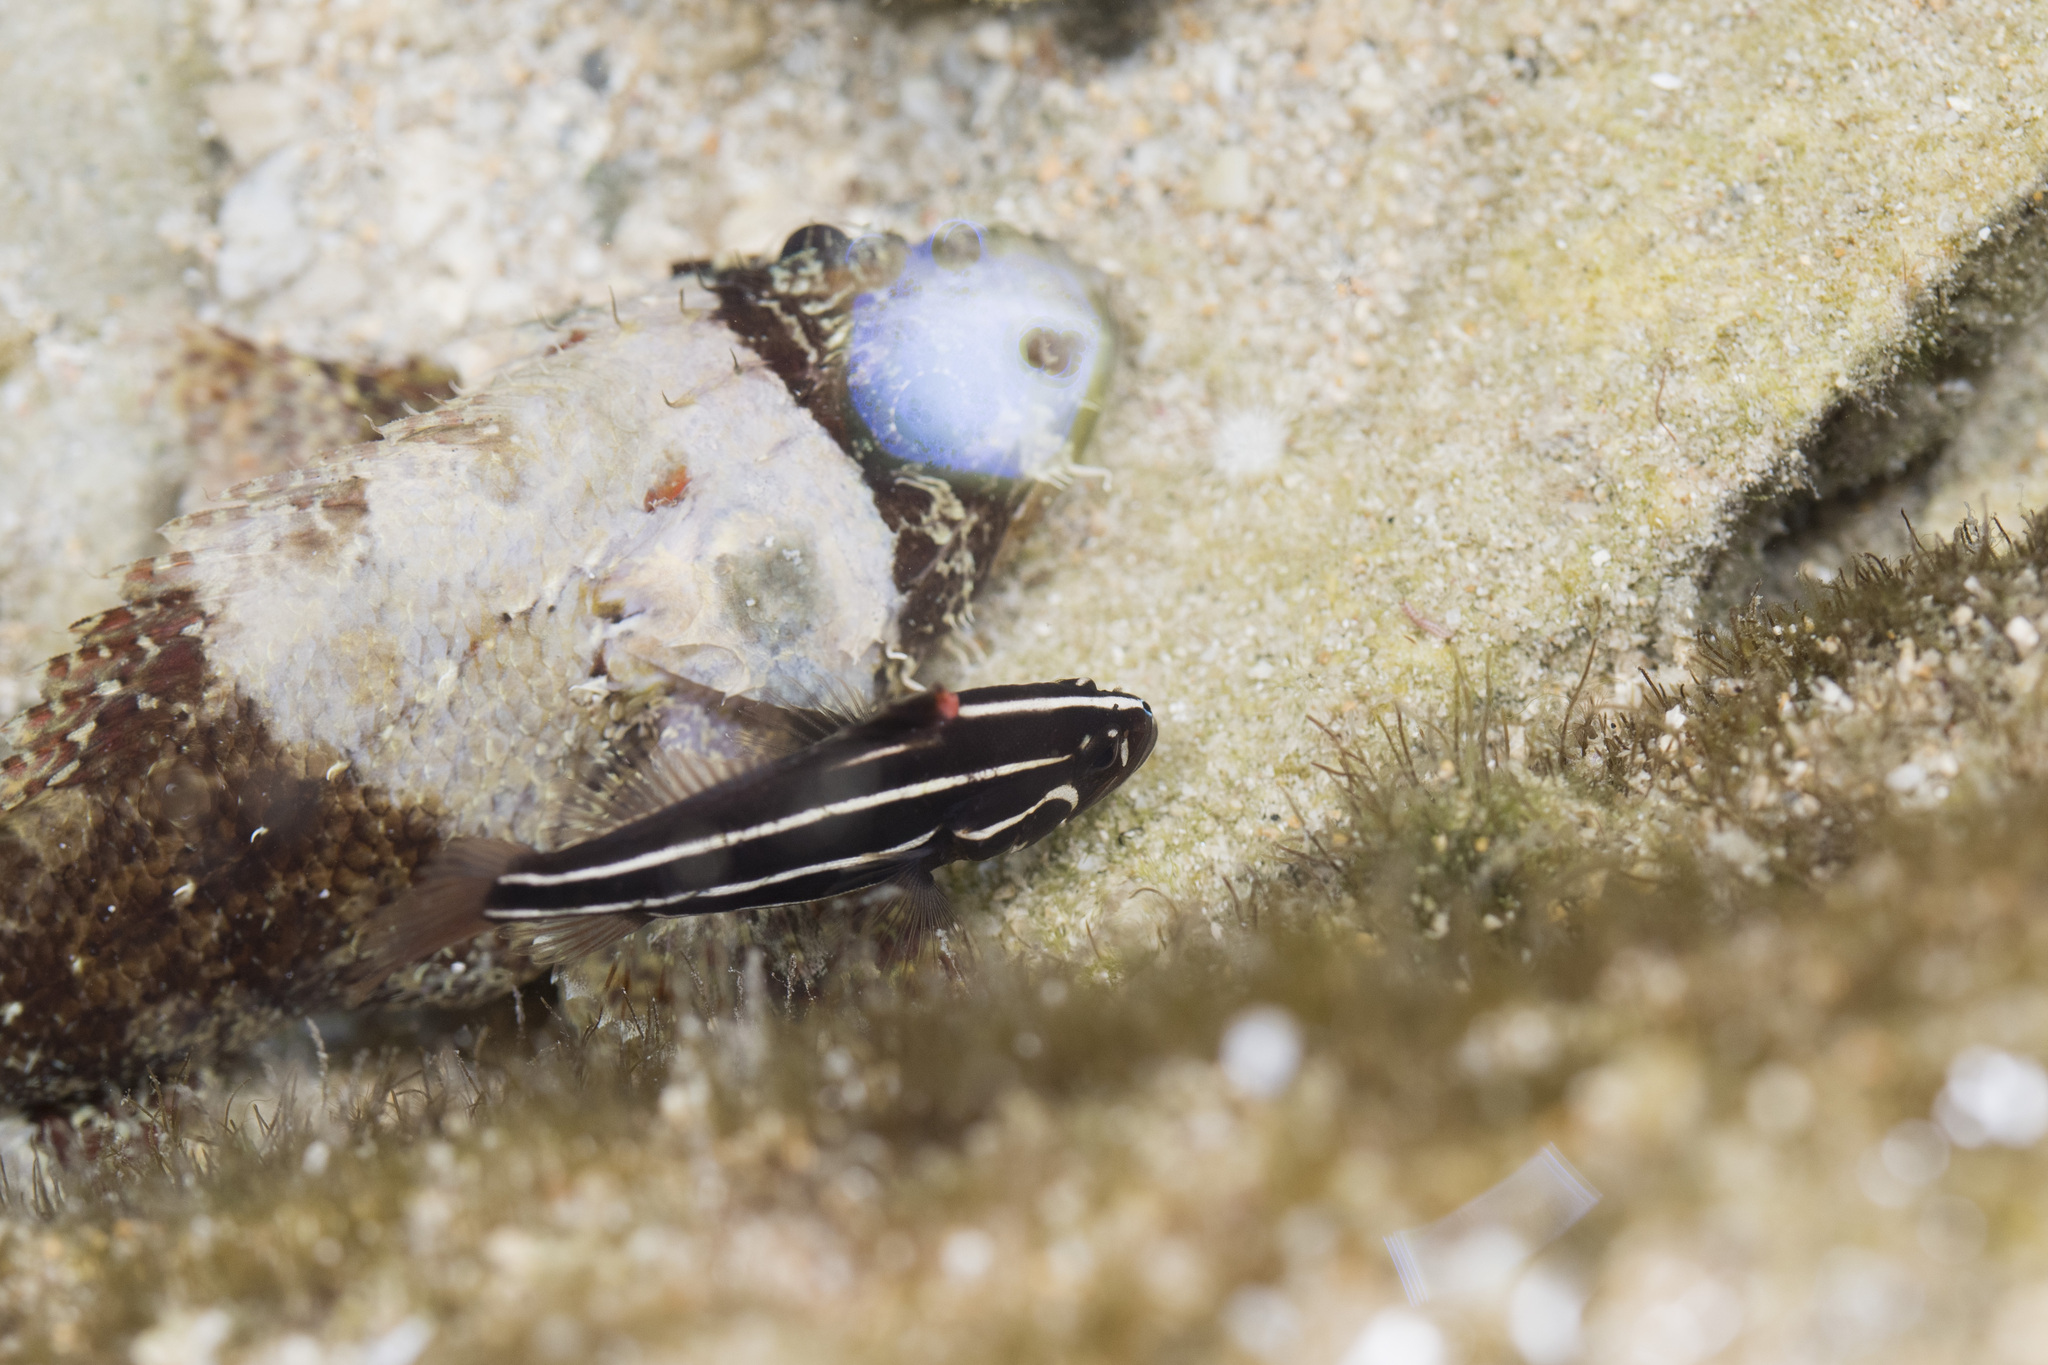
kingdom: Animalia
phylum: Chordata
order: Perciformes
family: Serranidae
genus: Grammistes
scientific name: Grammistes sexlineatus
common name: Sixline soapfish
